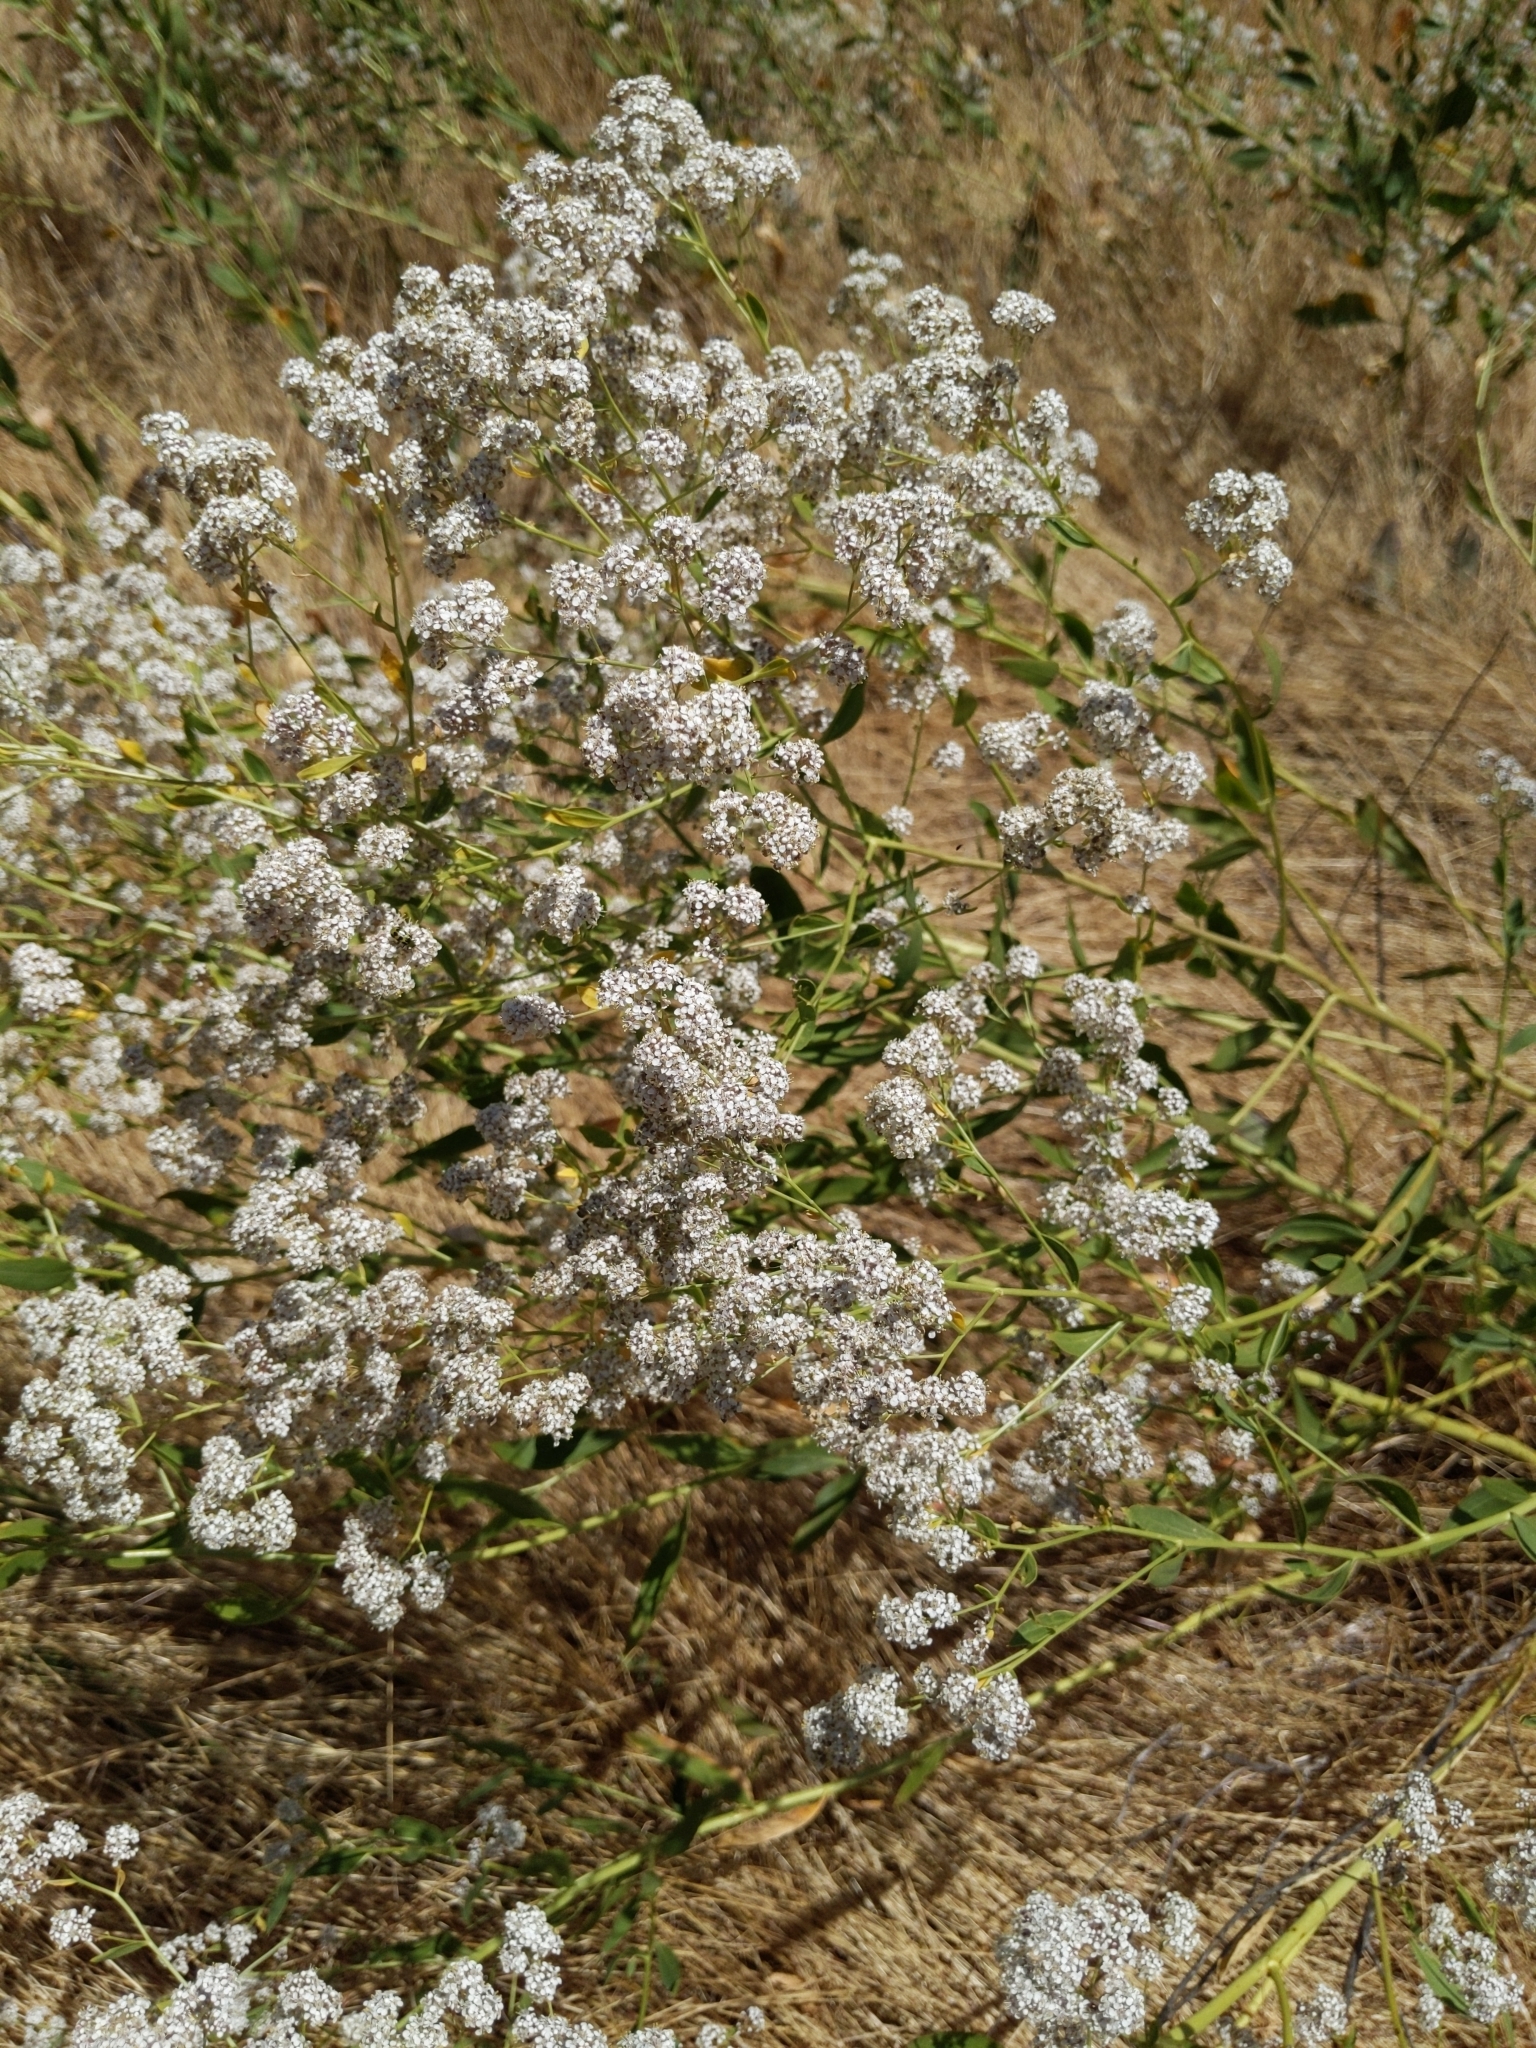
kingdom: Plantae
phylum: Tracheophyta
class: Magnoliopsida
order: Brassicales
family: Brassicaceae
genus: Lepidium
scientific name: Lepidium latifolium
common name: Dittander
